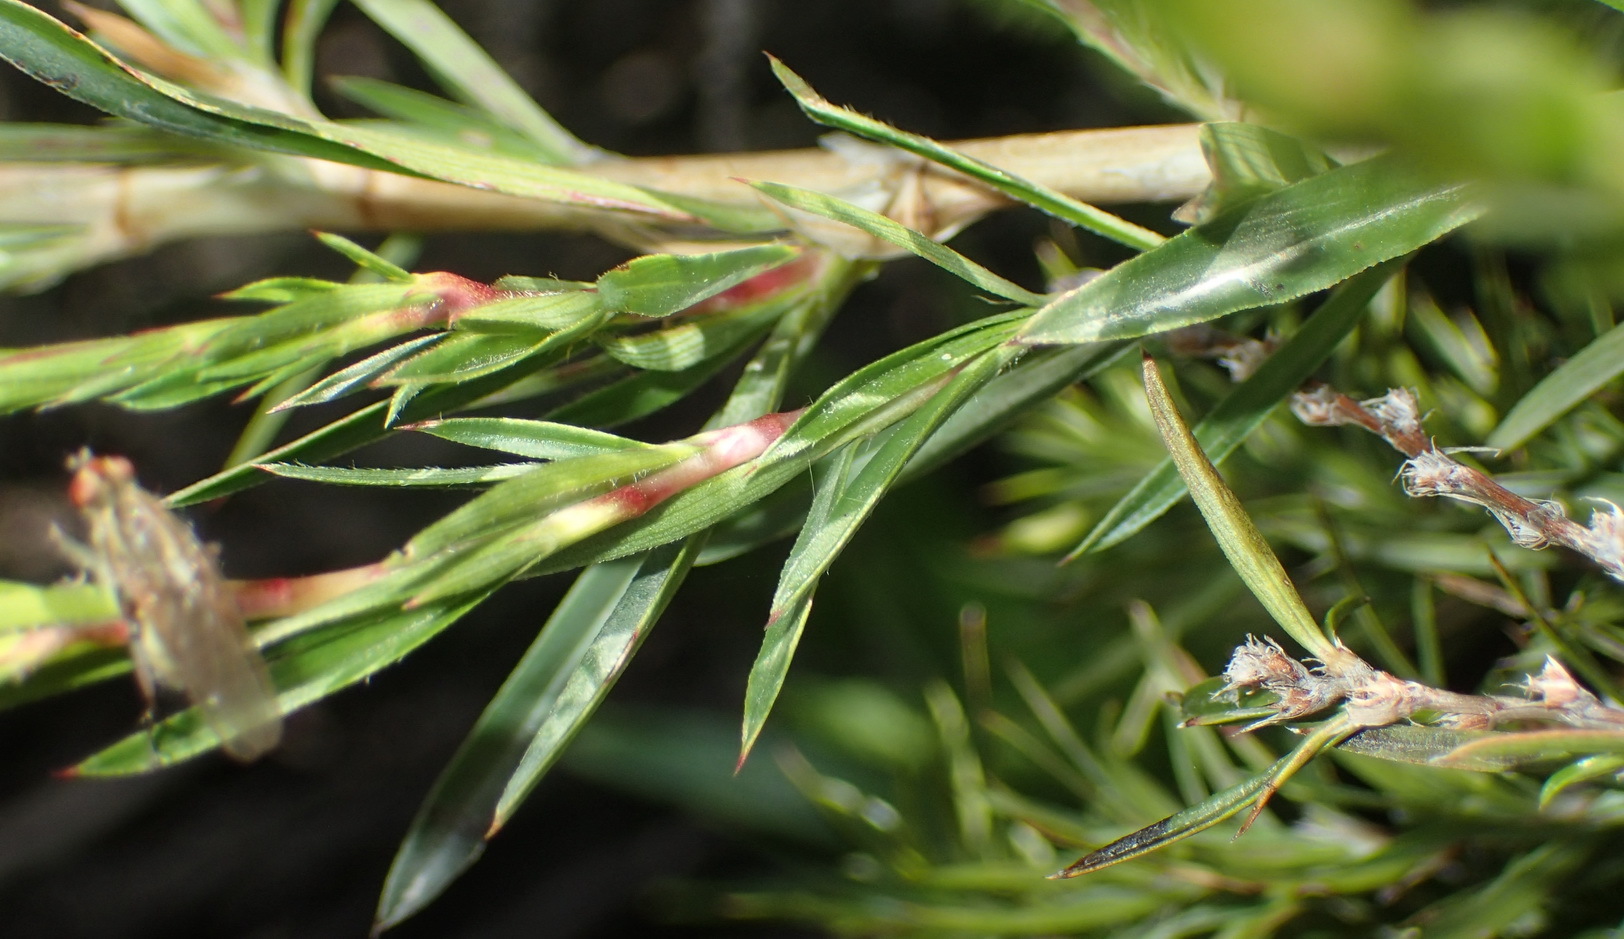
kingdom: Plantae
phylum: Tracheophyta
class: Magnoliopsida
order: Rosales
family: Rosaceae
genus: Cliffortia
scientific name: Cliffortia strobilifera
